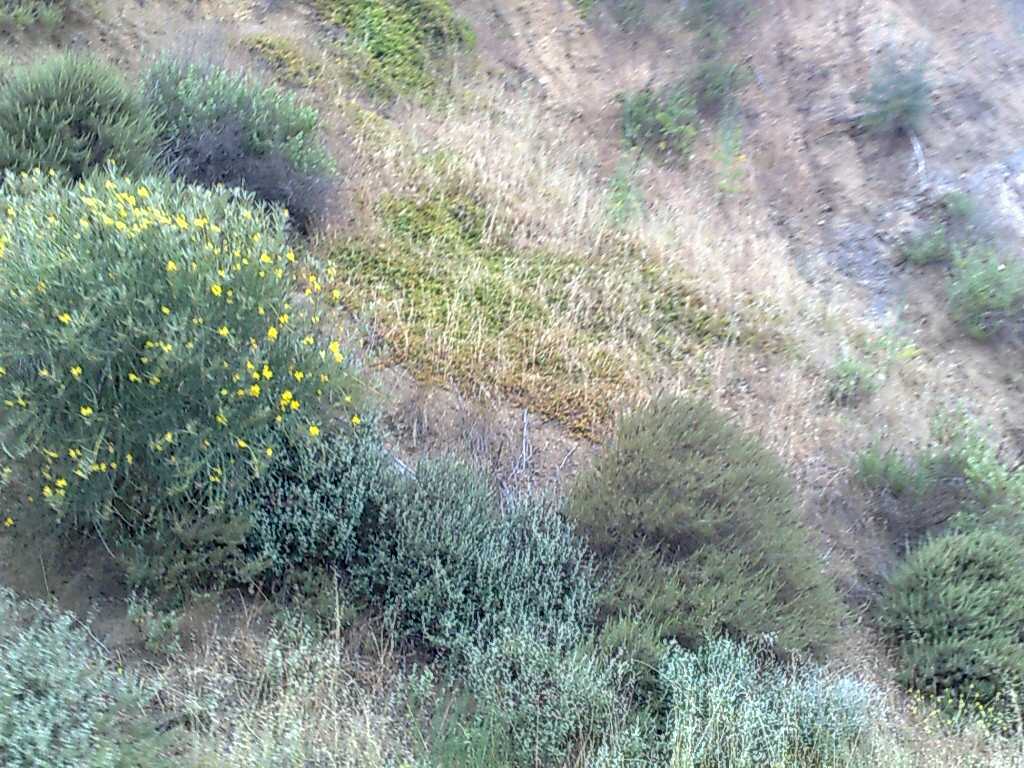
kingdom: Plantae
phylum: Tracheophyta
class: Magnoliopsida
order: Fabales
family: Fabaceae
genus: Spartium
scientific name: Spartium junceum
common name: Spanish broom
